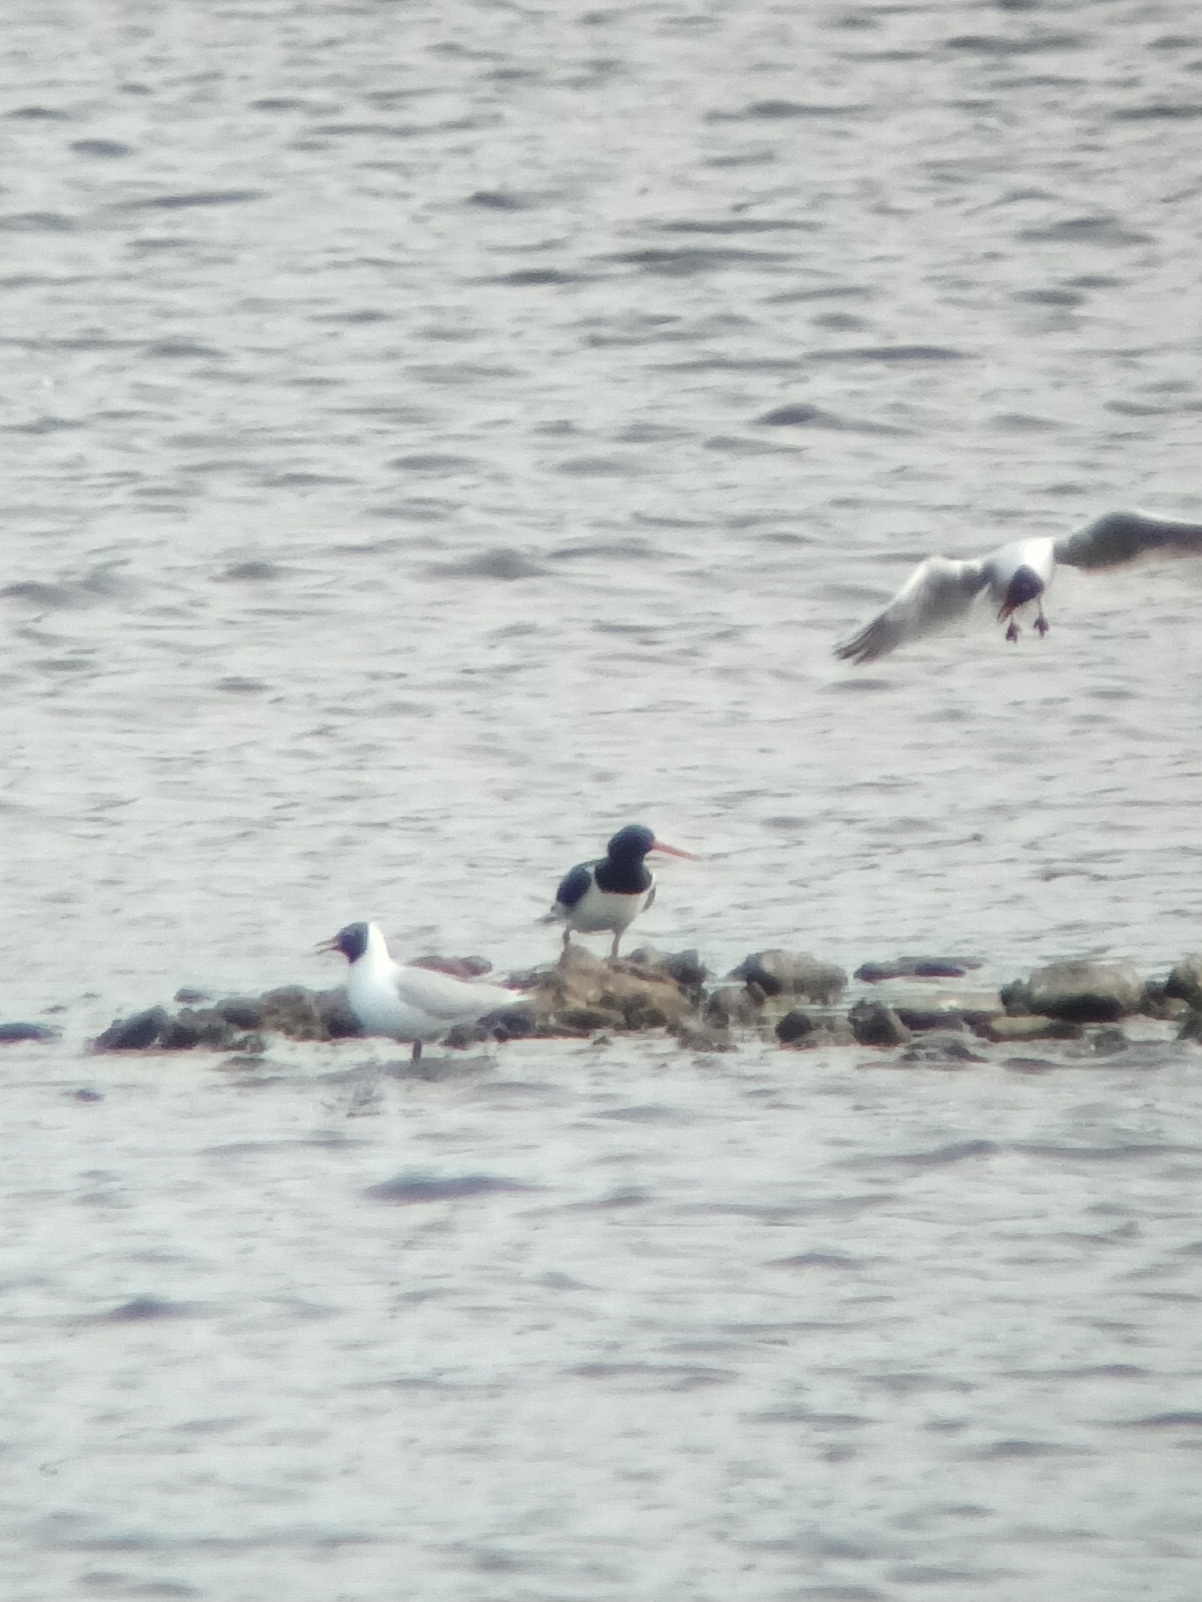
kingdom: Animalia
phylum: Chordata
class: Aves
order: Charadriiformes
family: Haematopodidae
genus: Haematopus
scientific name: Haematopus ostralegus
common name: Eurasian oystercatcher
